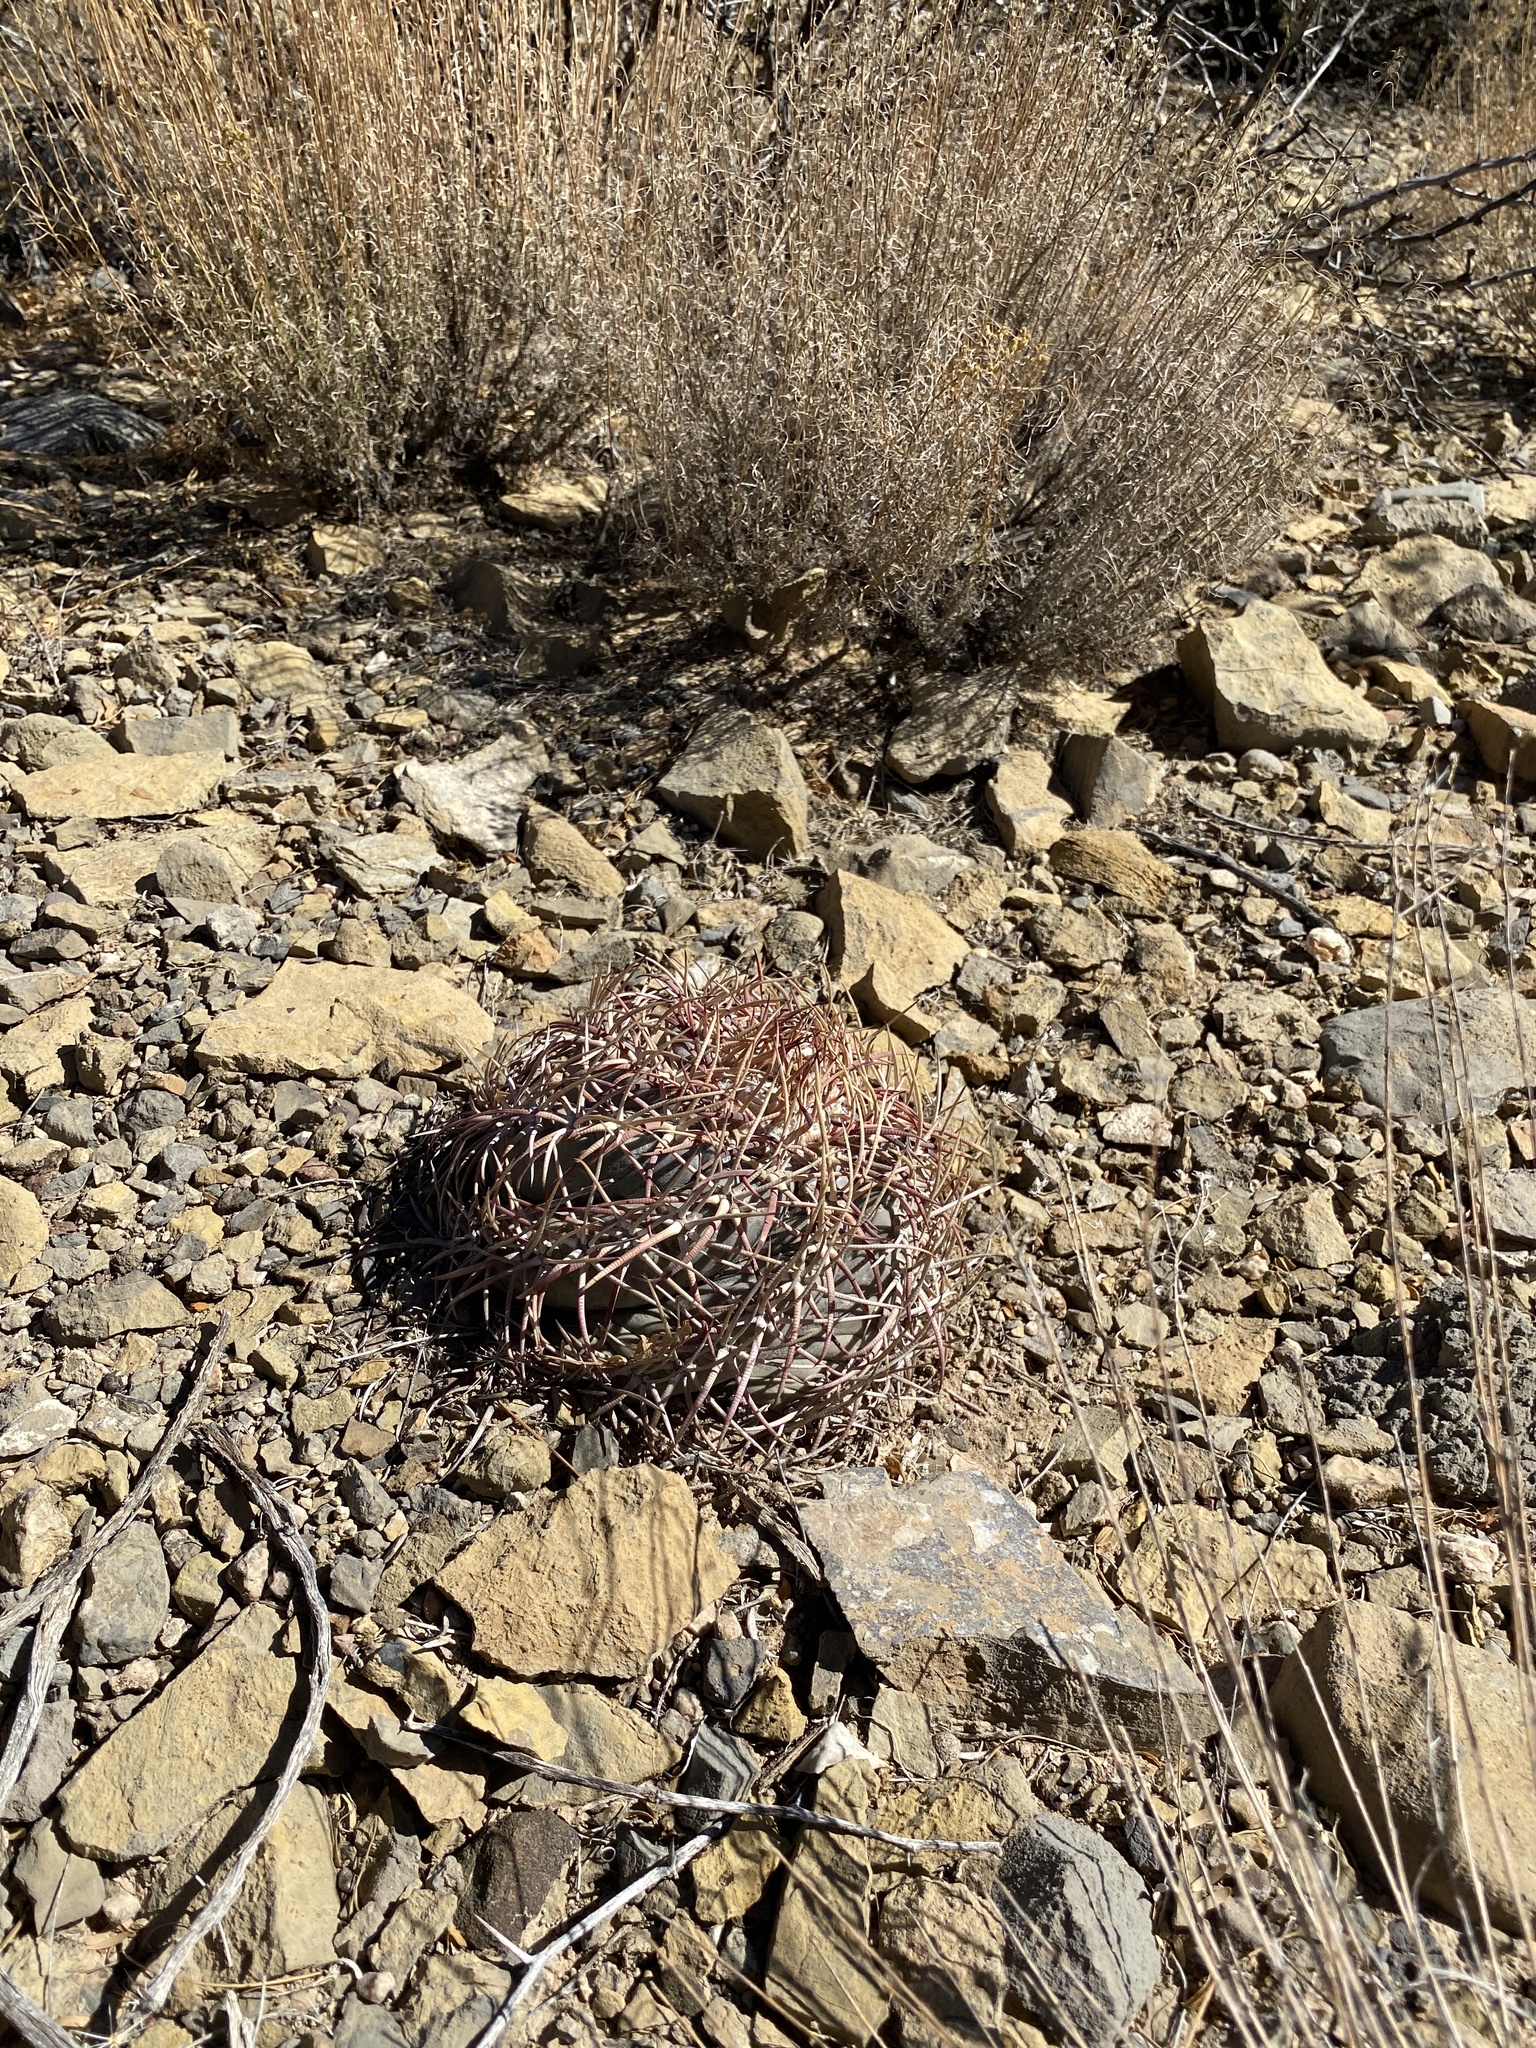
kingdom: Plantae
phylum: Tracheophyta
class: Magnoliopsida
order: Caryophyllales
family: Cactaceae
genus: Echinocactus
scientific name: Echinocactus horizonthalonius
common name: Devilshead
